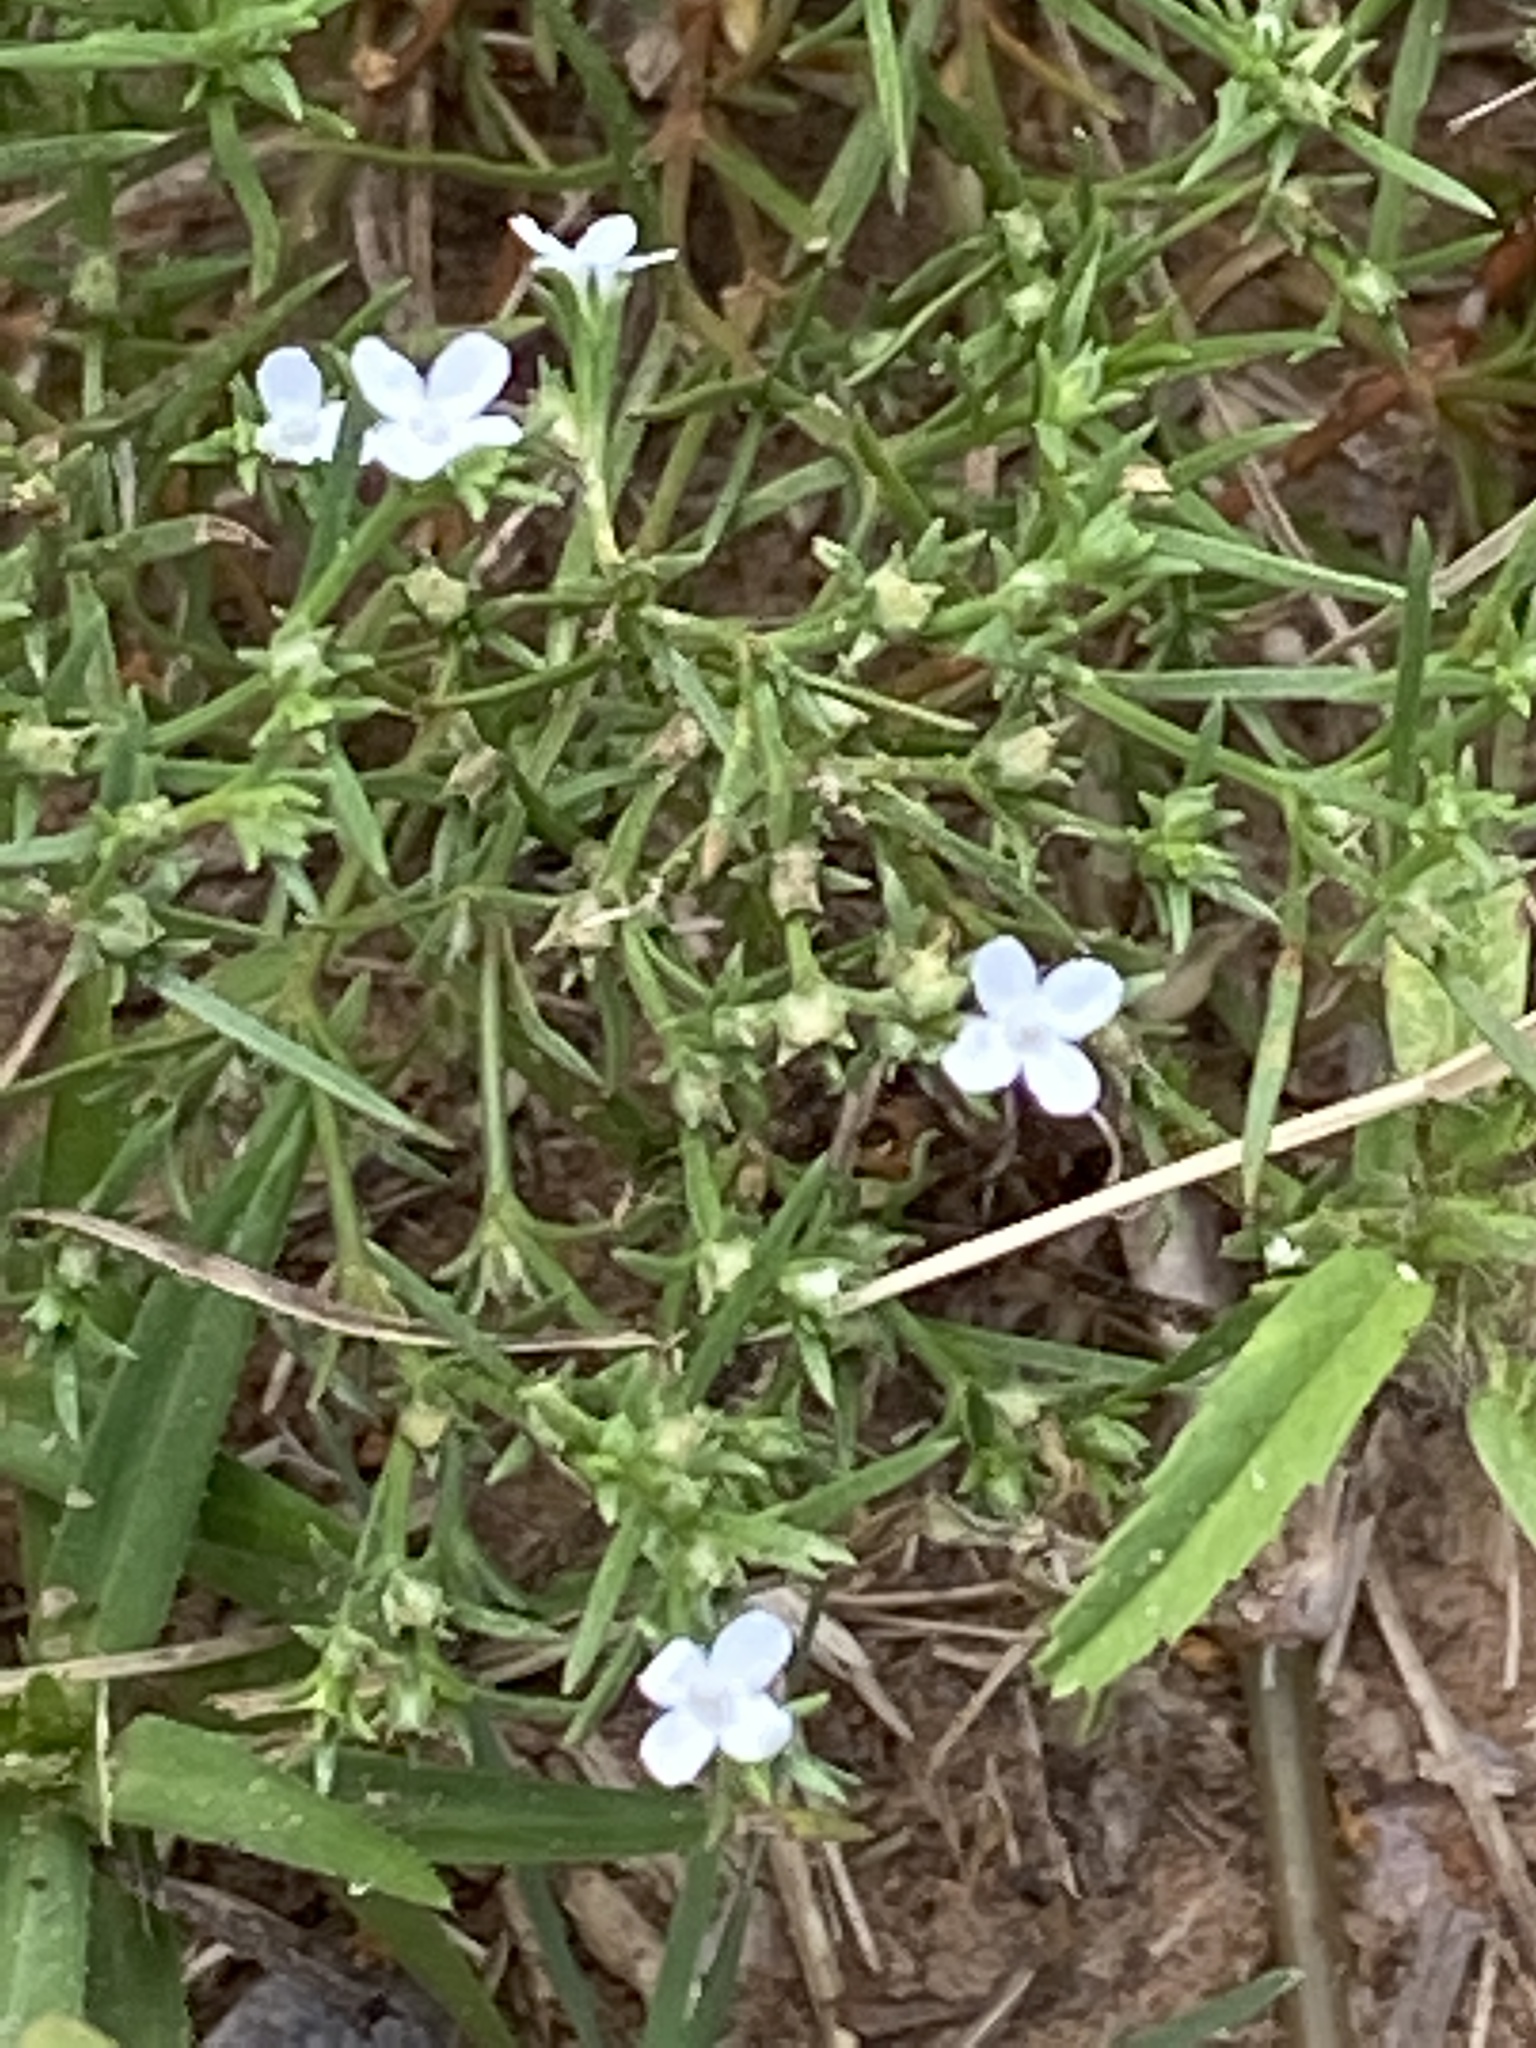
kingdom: Plantae
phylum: Tracheophyta
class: Magnoliopsida
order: Gentianales
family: Rubiaceae
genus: Stenaria
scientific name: Stenaria nigricans
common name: Diamondflowers
